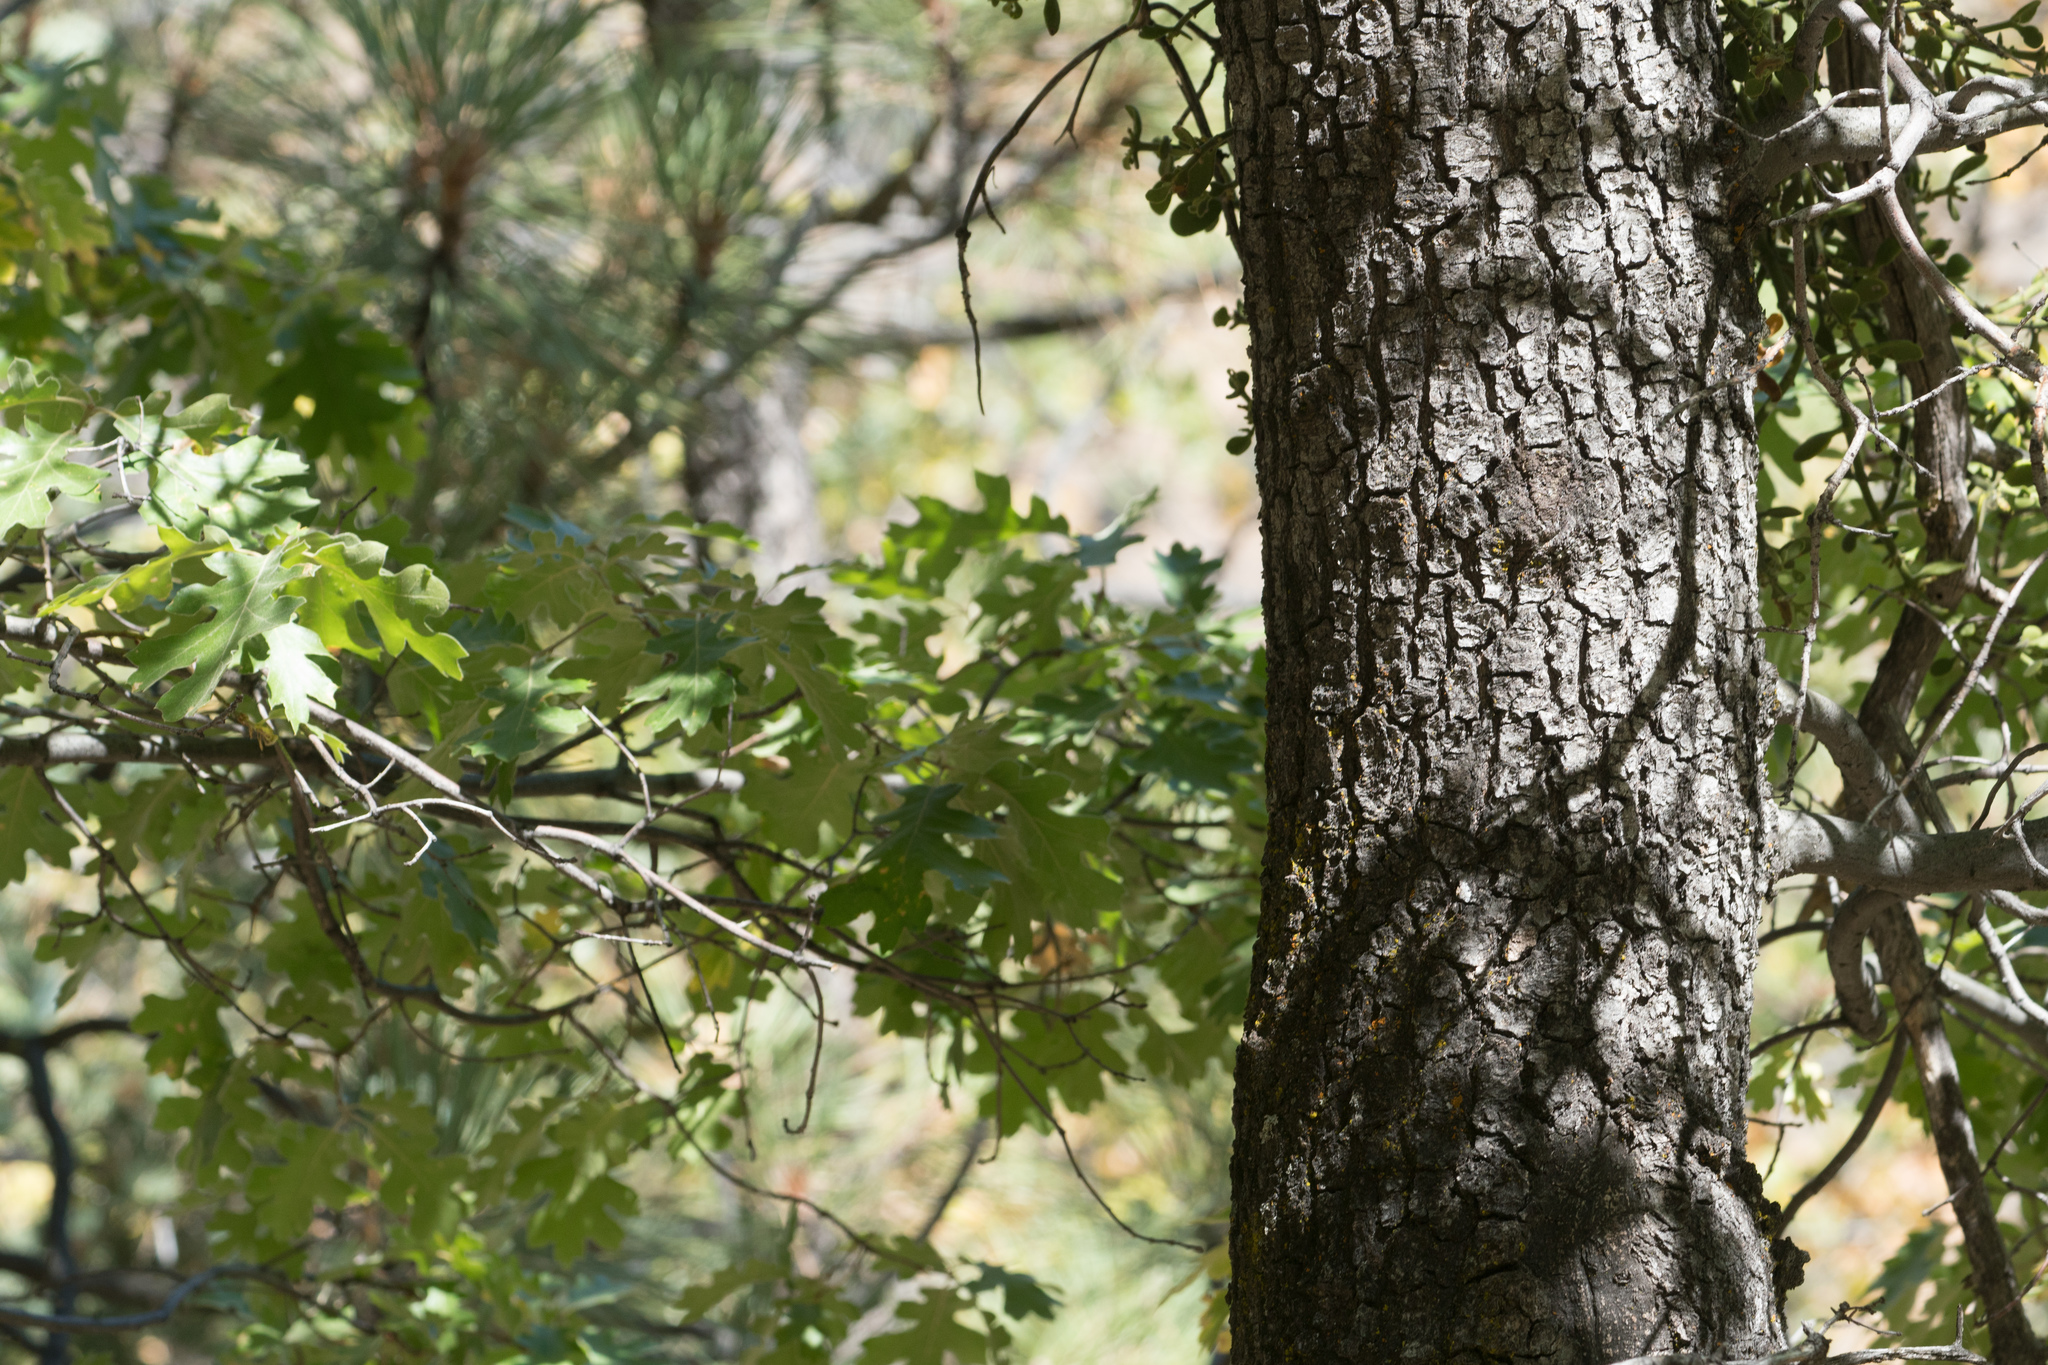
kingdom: Plantae
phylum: Tracheophyta
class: Magnoliopsida
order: Fagales
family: Fagaceae
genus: Quercus
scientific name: Quercus kelloggii
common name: California black oak
